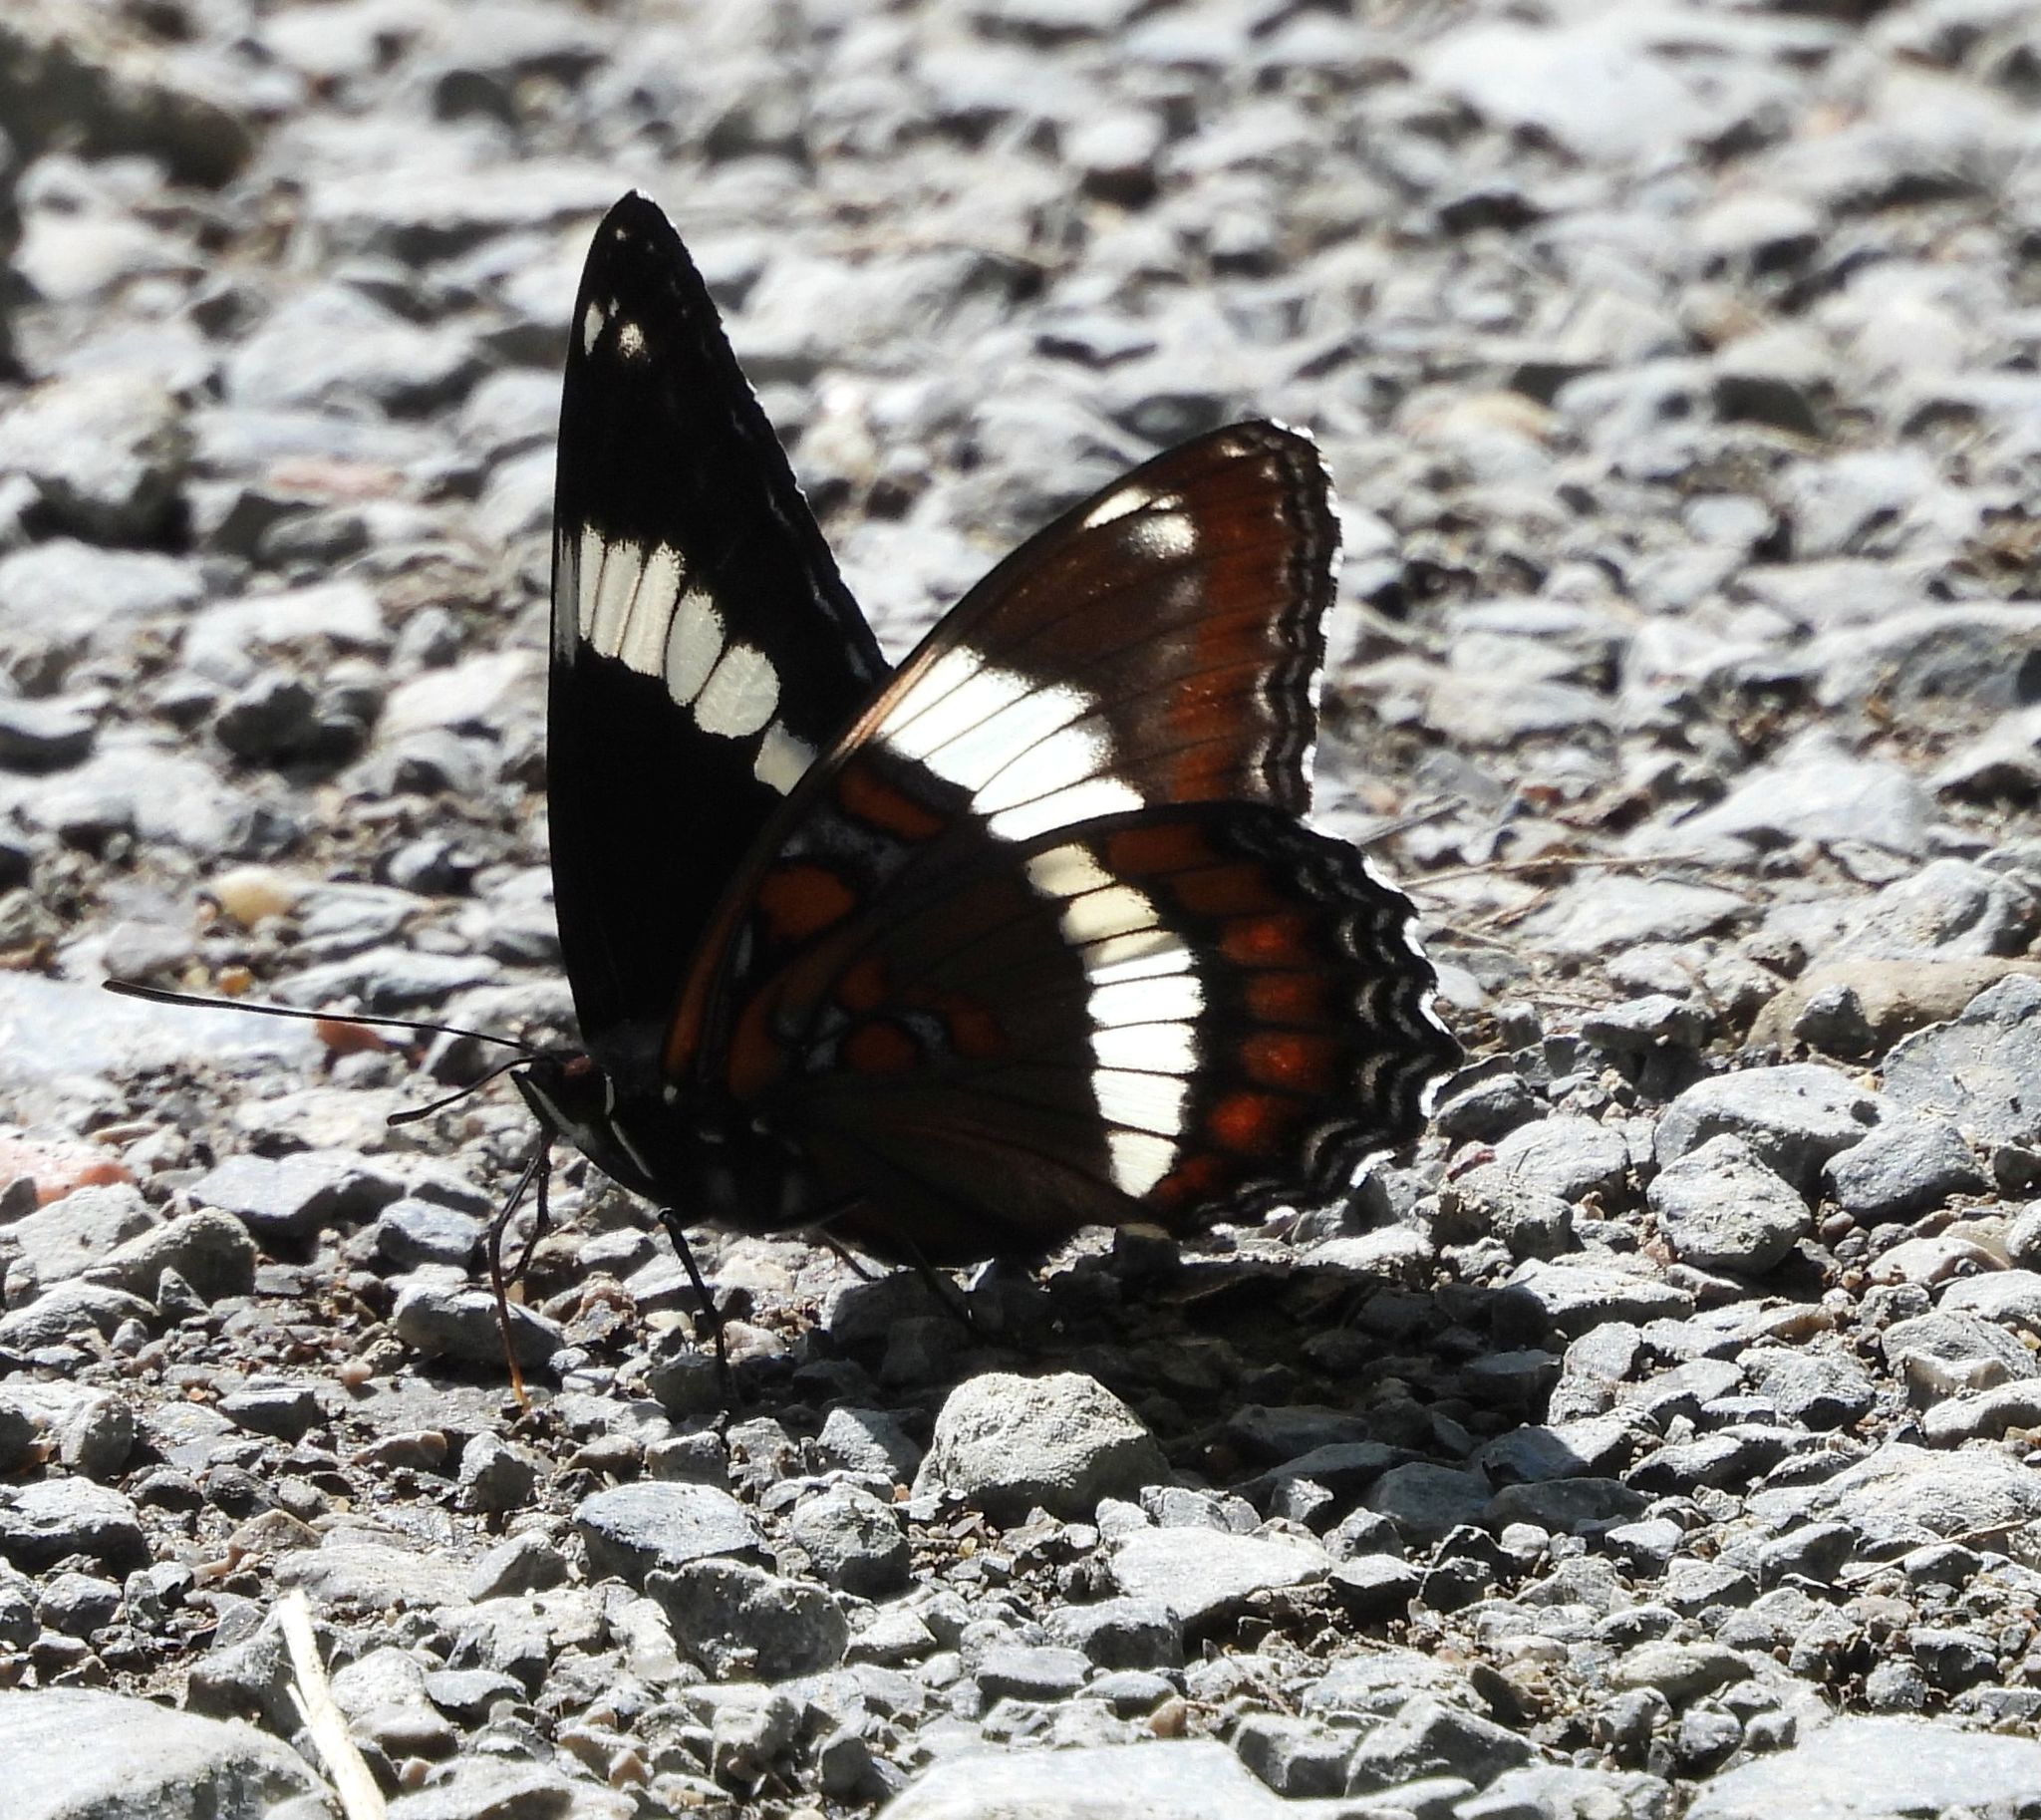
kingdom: Animalia
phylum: Arthropoda
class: Insecta
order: Lepidoptera
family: Nymphalidae
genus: Limenitis
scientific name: Limenitis arthemis
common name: Red-spotted admiral
